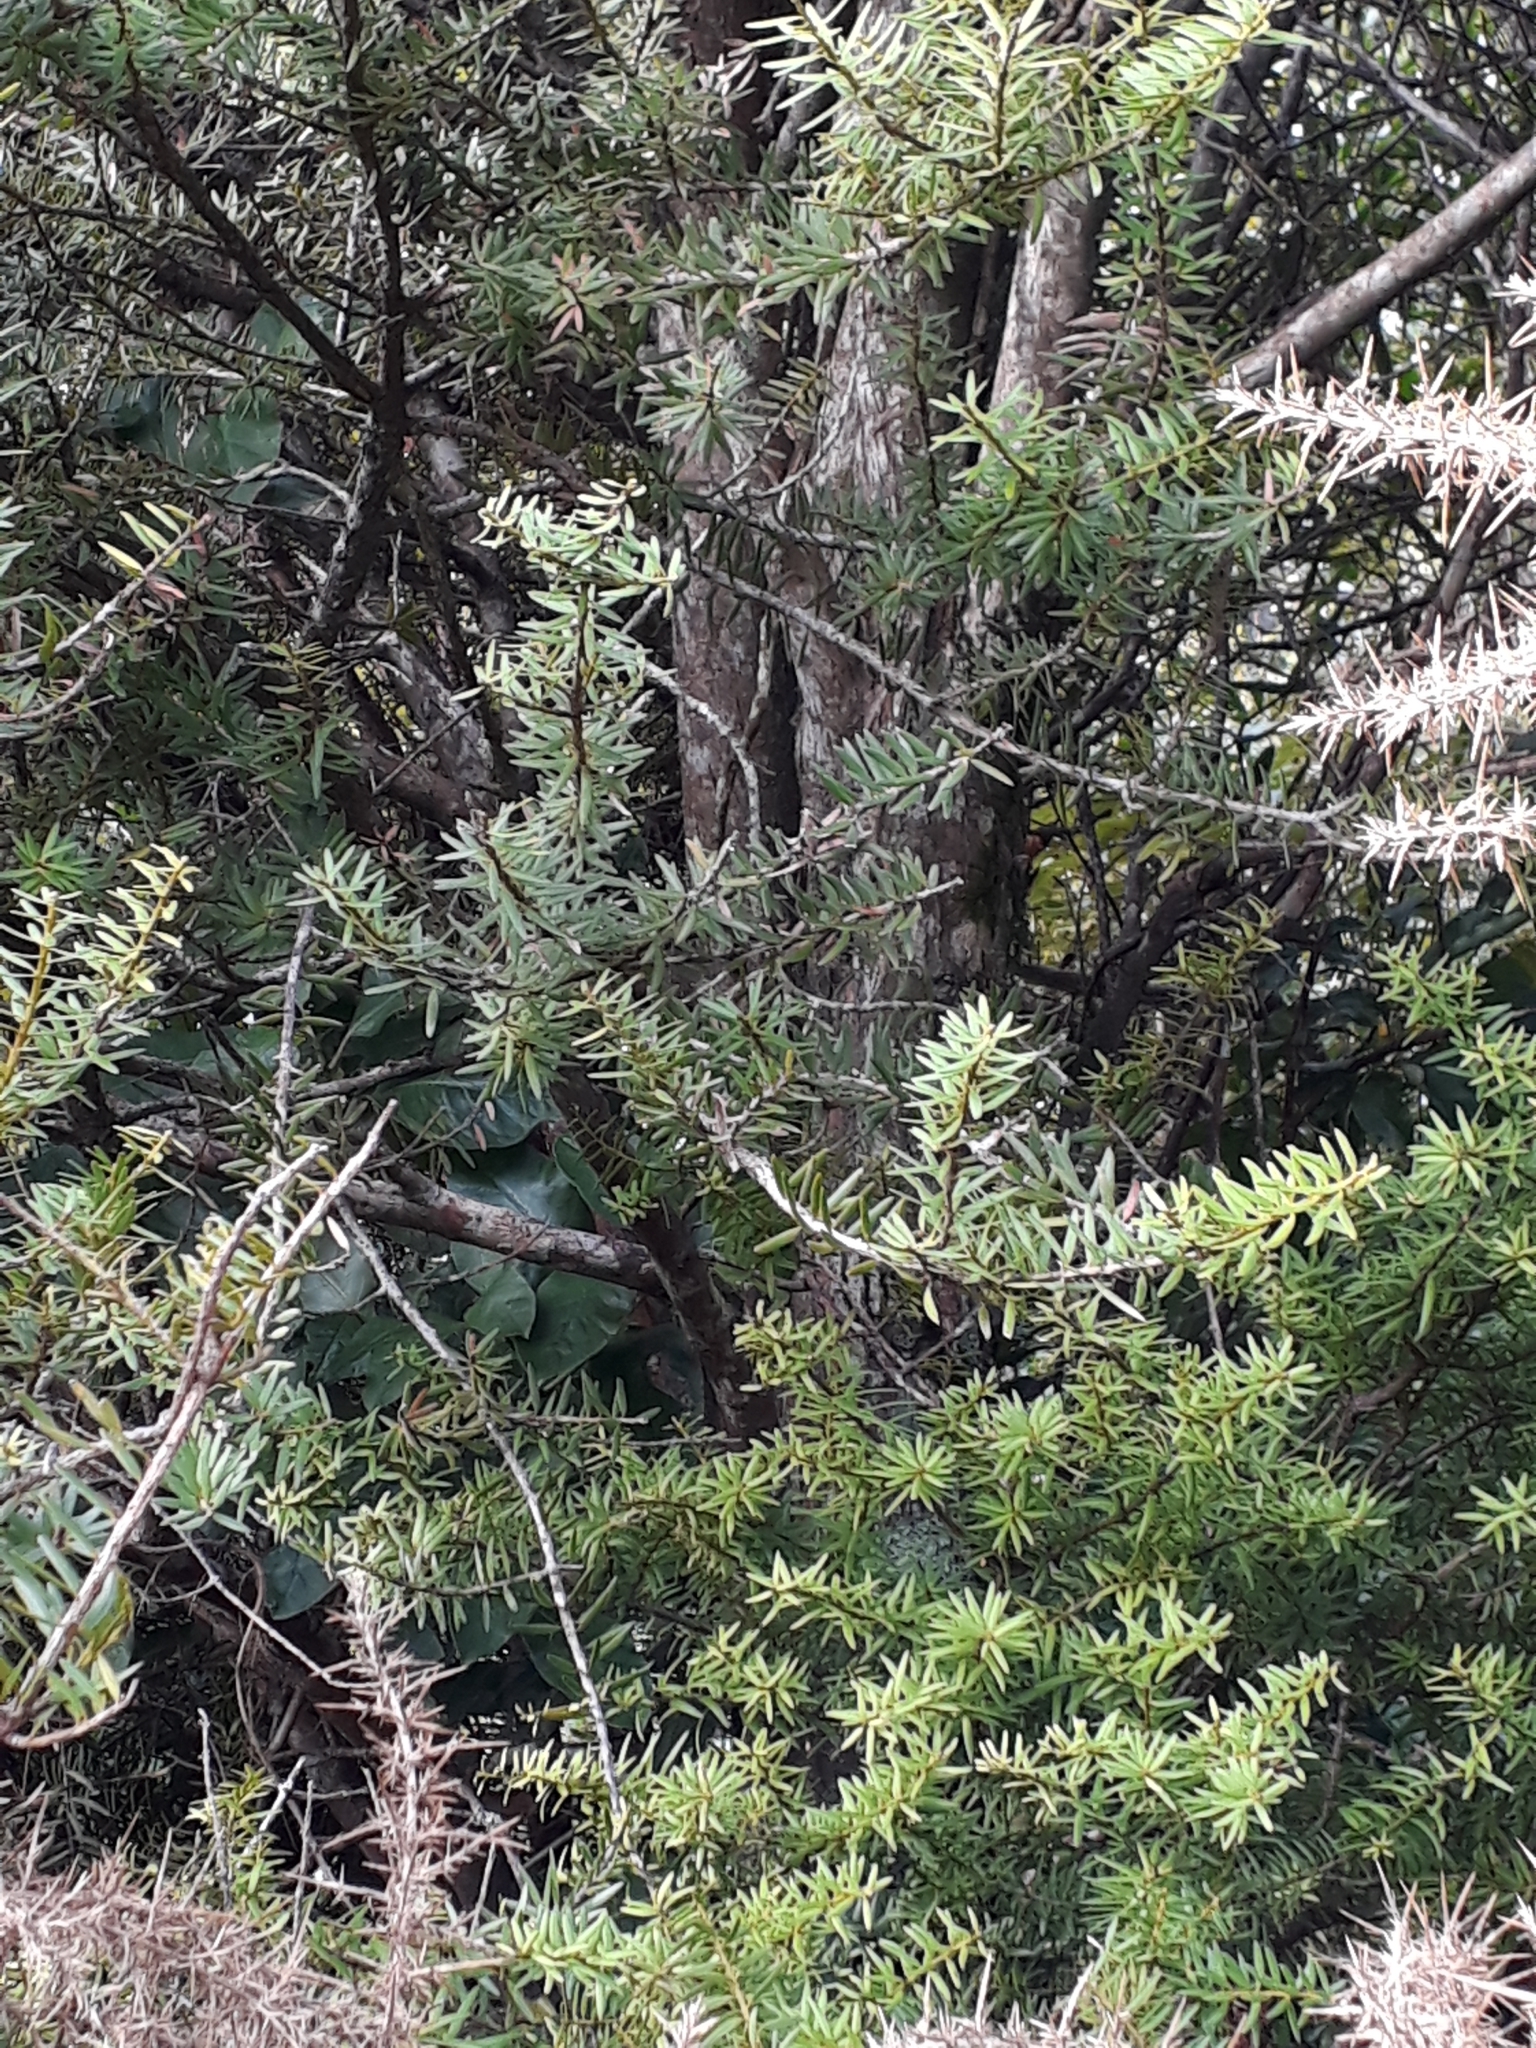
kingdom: Plantae
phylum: Tracheophyta
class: Pinopsida
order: Pinales
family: Podocarpaceae
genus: Podocarpus
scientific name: Podocarpus laetus
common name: Hall's totara
